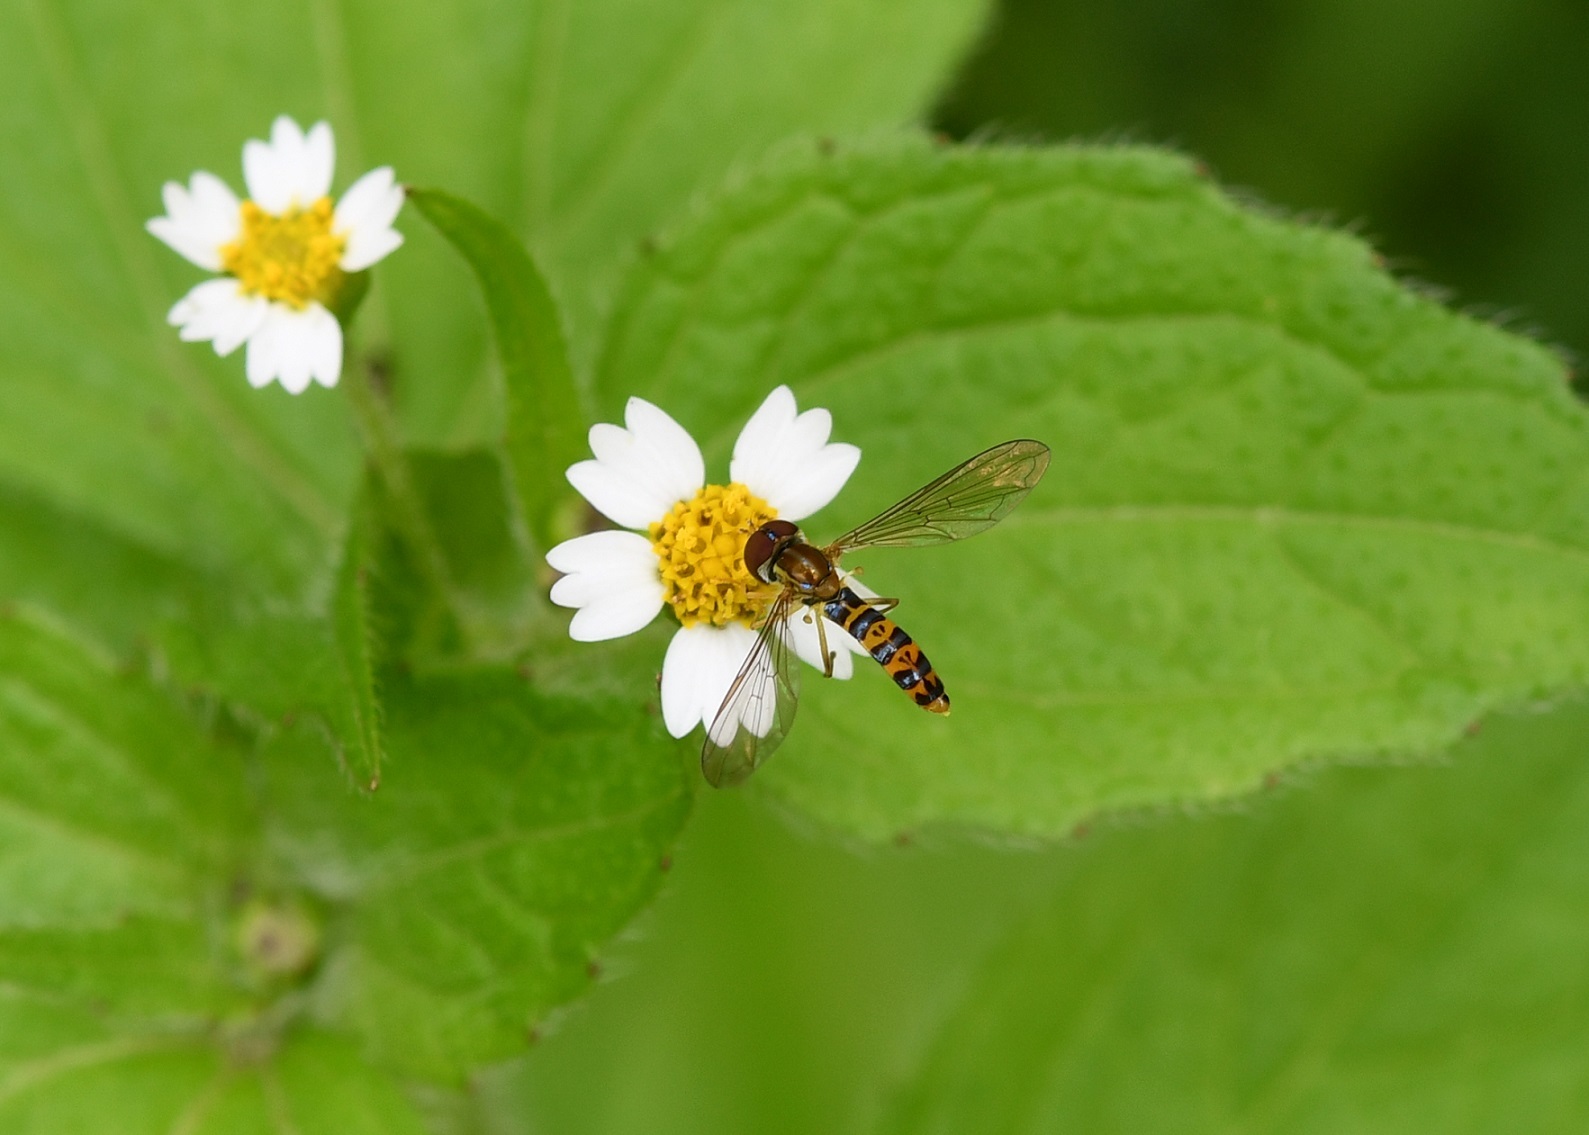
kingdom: Animalia
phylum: Arthropoda
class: Insecta
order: Diptera
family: Syrphidae
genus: Toxomerus
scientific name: Toxomerus mutuus
